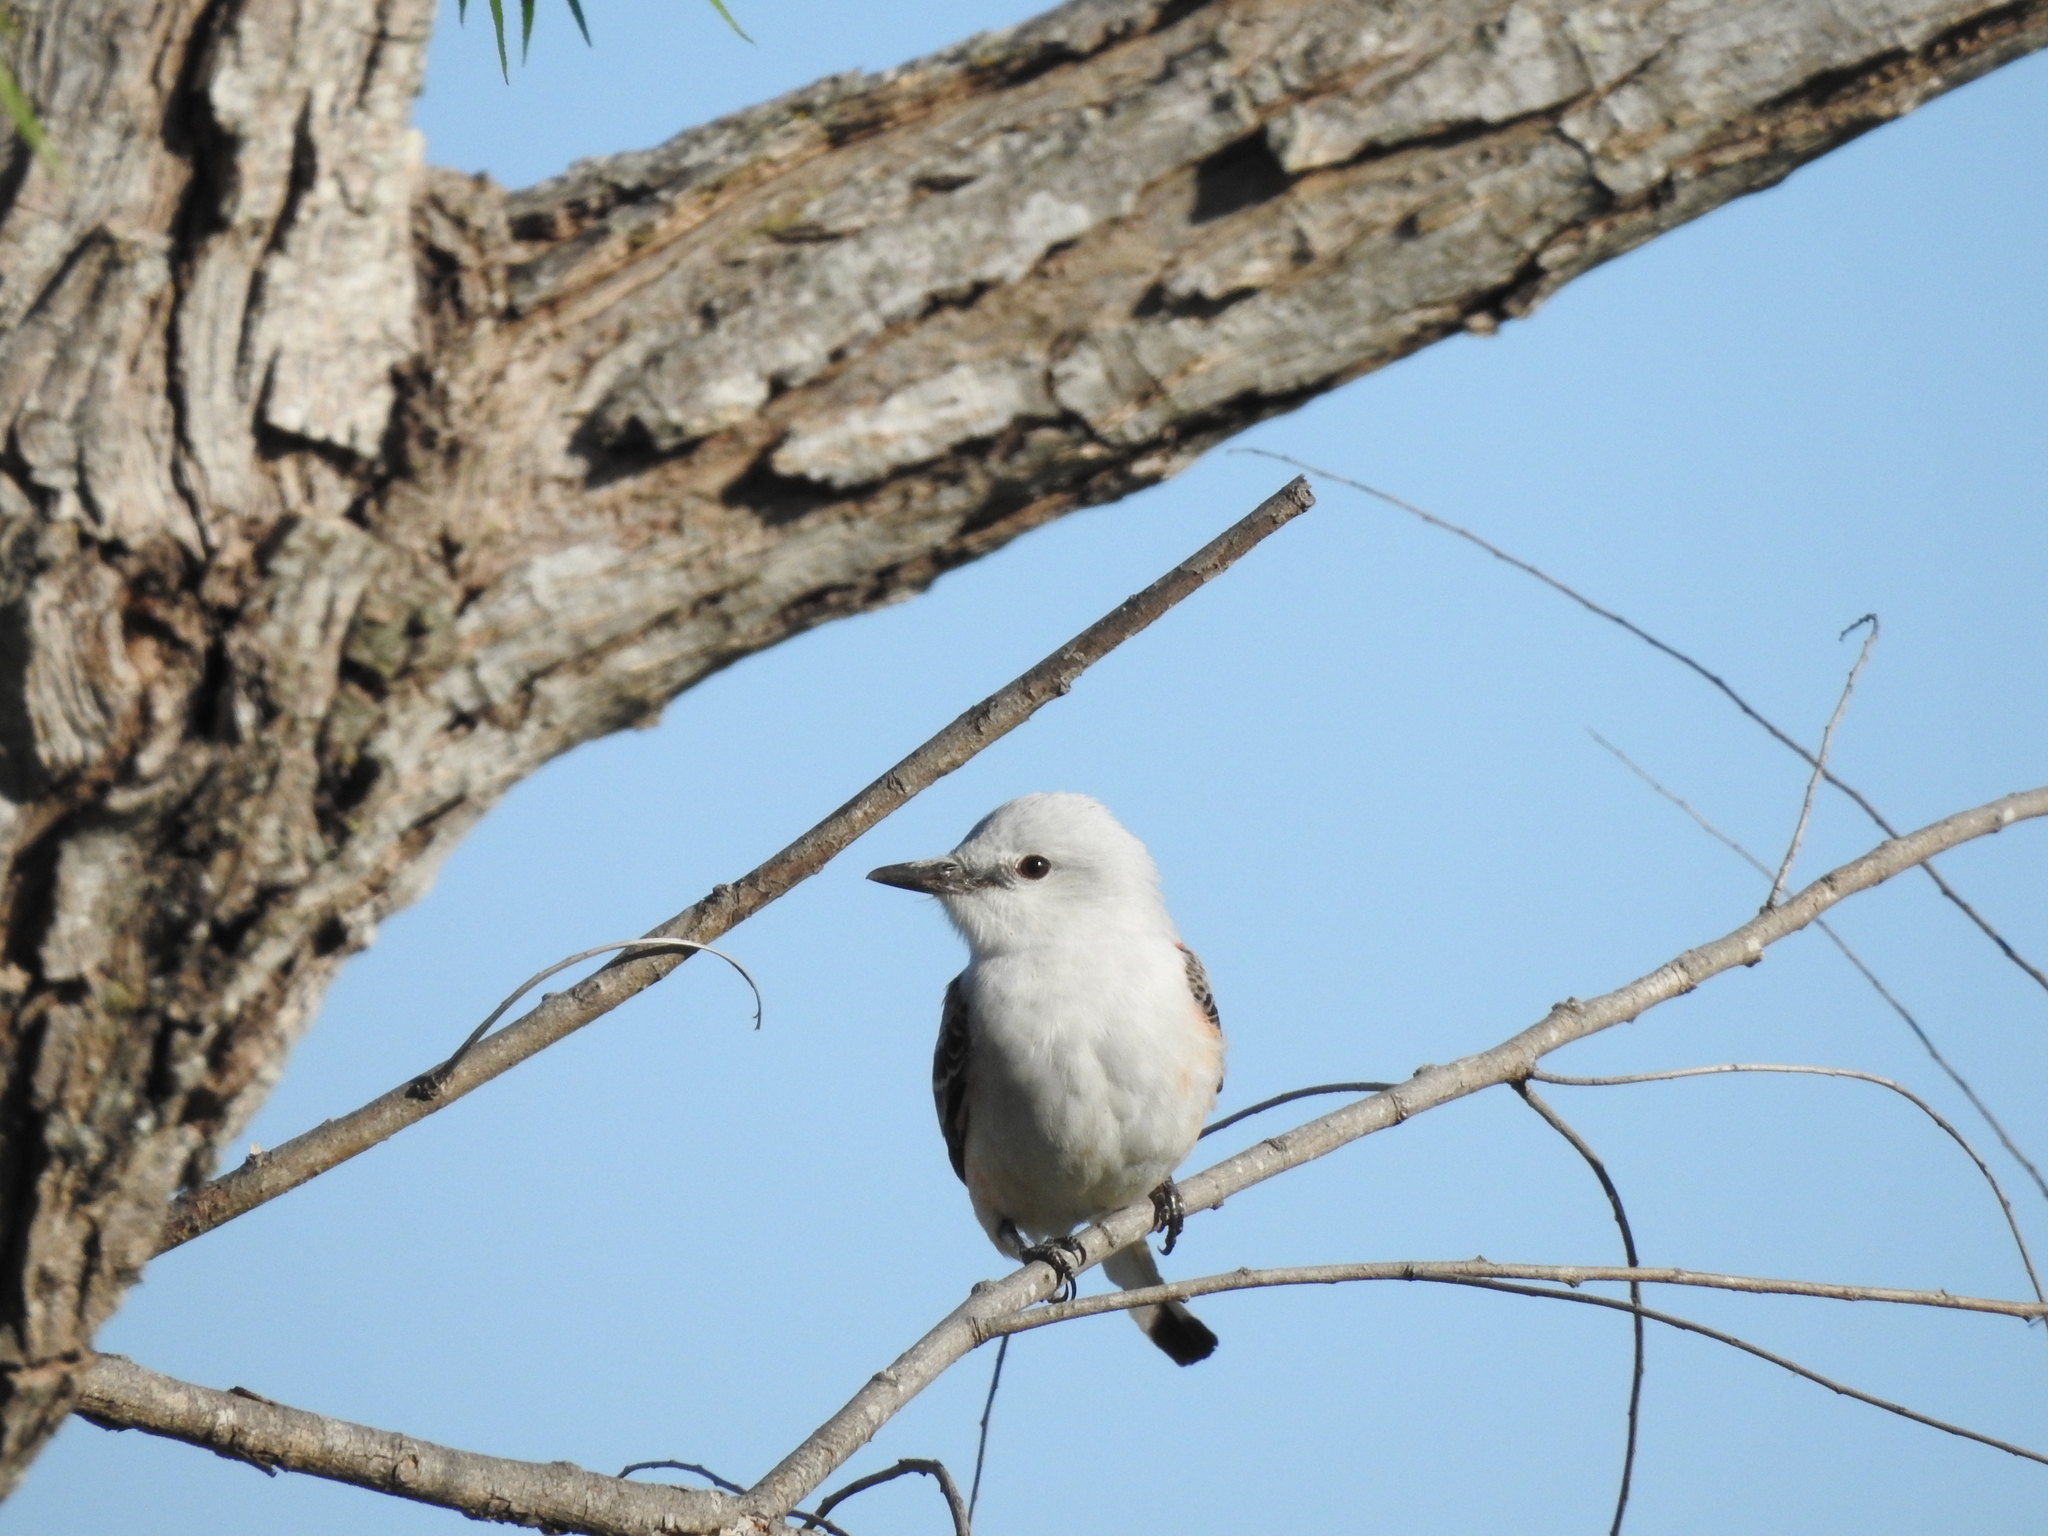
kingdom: Animalia
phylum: Chordata
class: Aves
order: Passeriformes
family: Tyrannidae
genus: Tyrannus
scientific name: Tyrannus forficatus
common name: Scissor-tailed flycatcher
